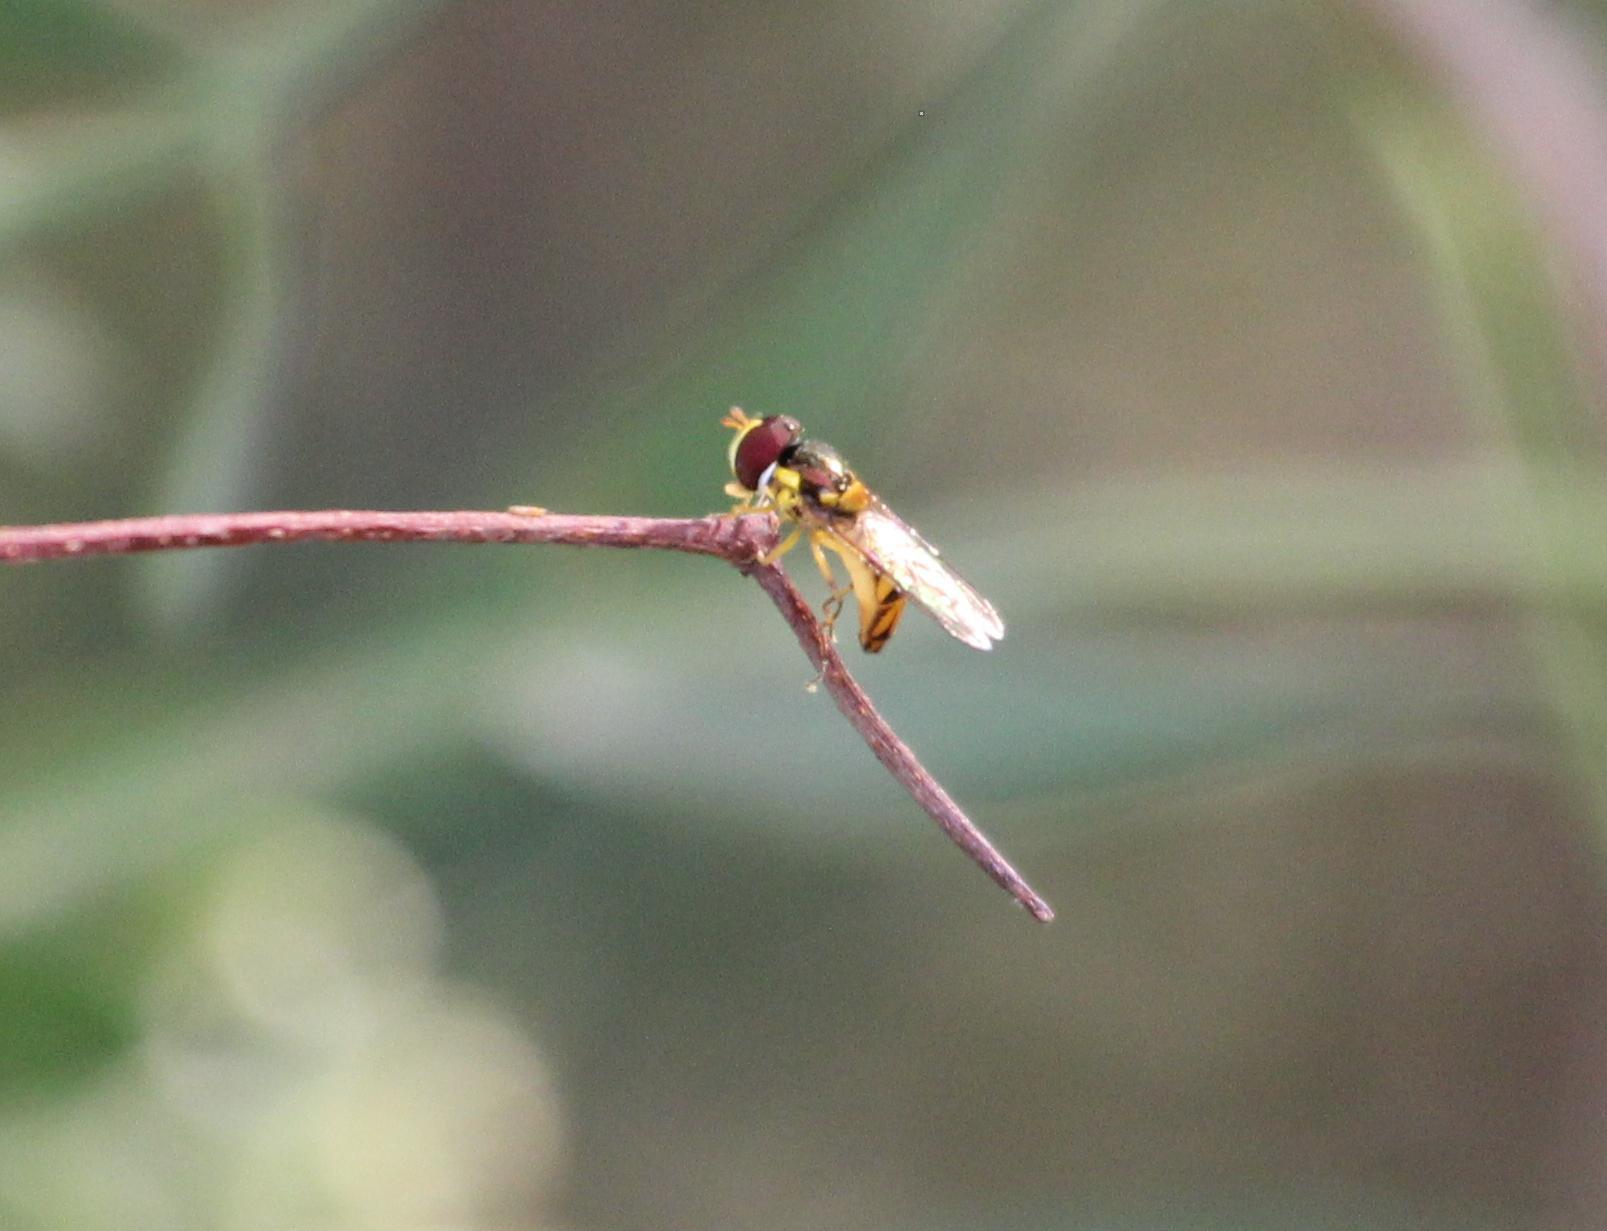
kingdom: Animalia
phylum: Arthropoda
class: Insecta
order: Diptera
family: Syrphidae
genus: Allograpta
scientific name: Allograpta obliqua
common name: Common oblique syrphid
